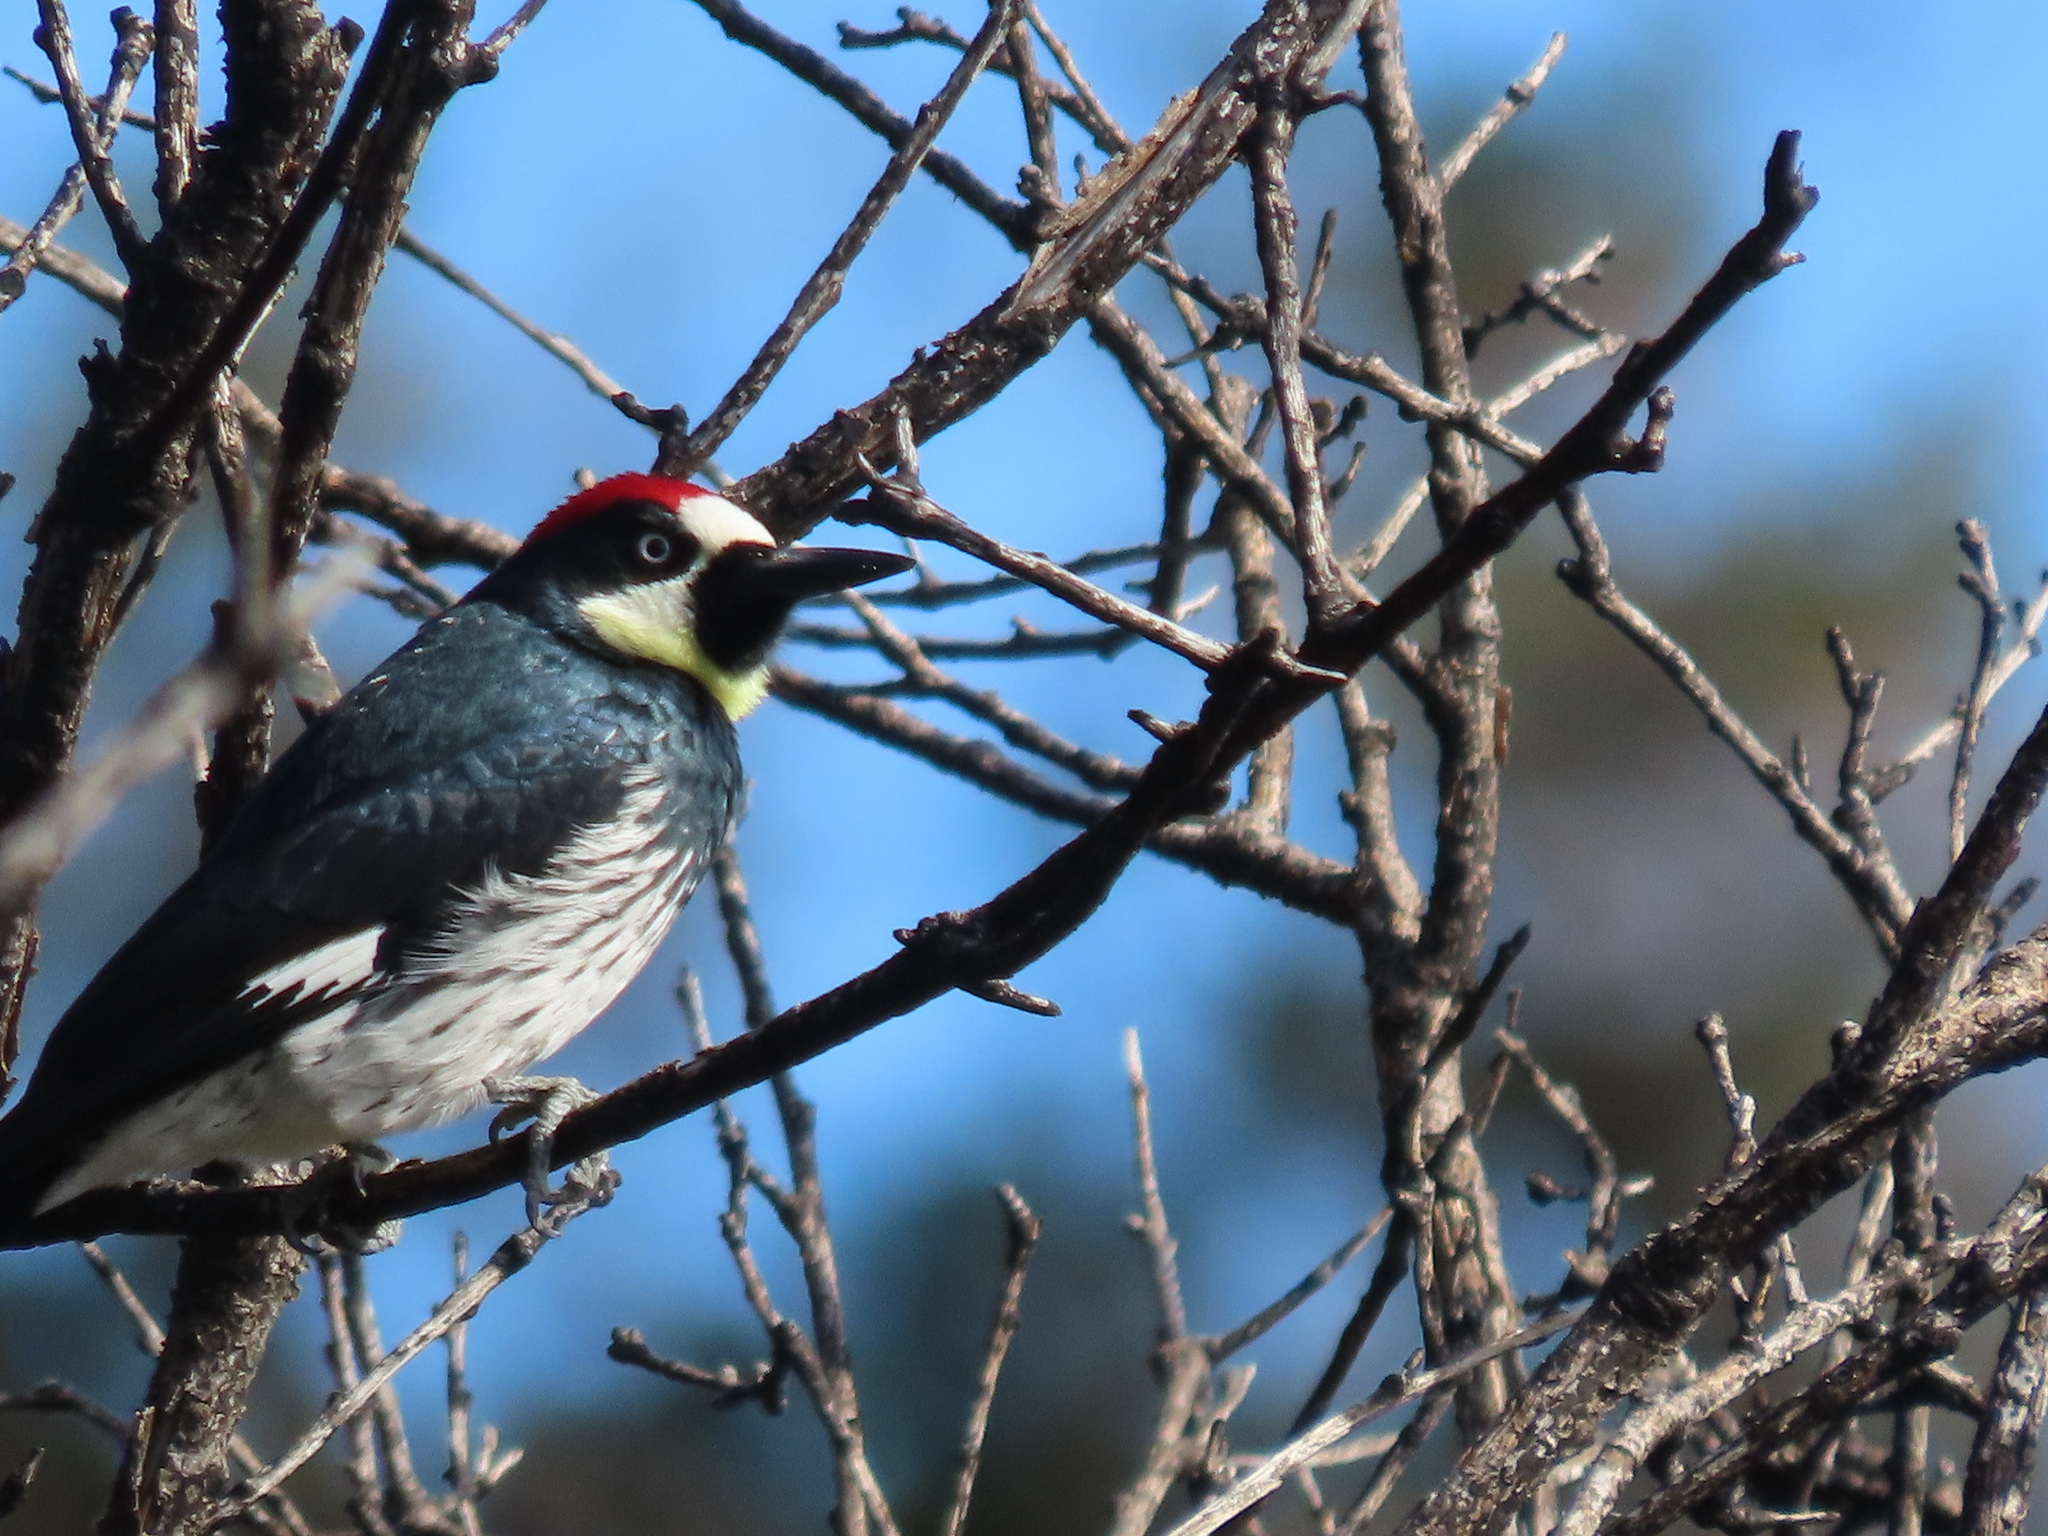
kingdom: Animalia
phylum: Chordata
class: Aves
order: Piciformes
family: Picidae
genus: Melanerpes
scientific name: Melanerpes formicivorus
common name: Acorn woodpecker
